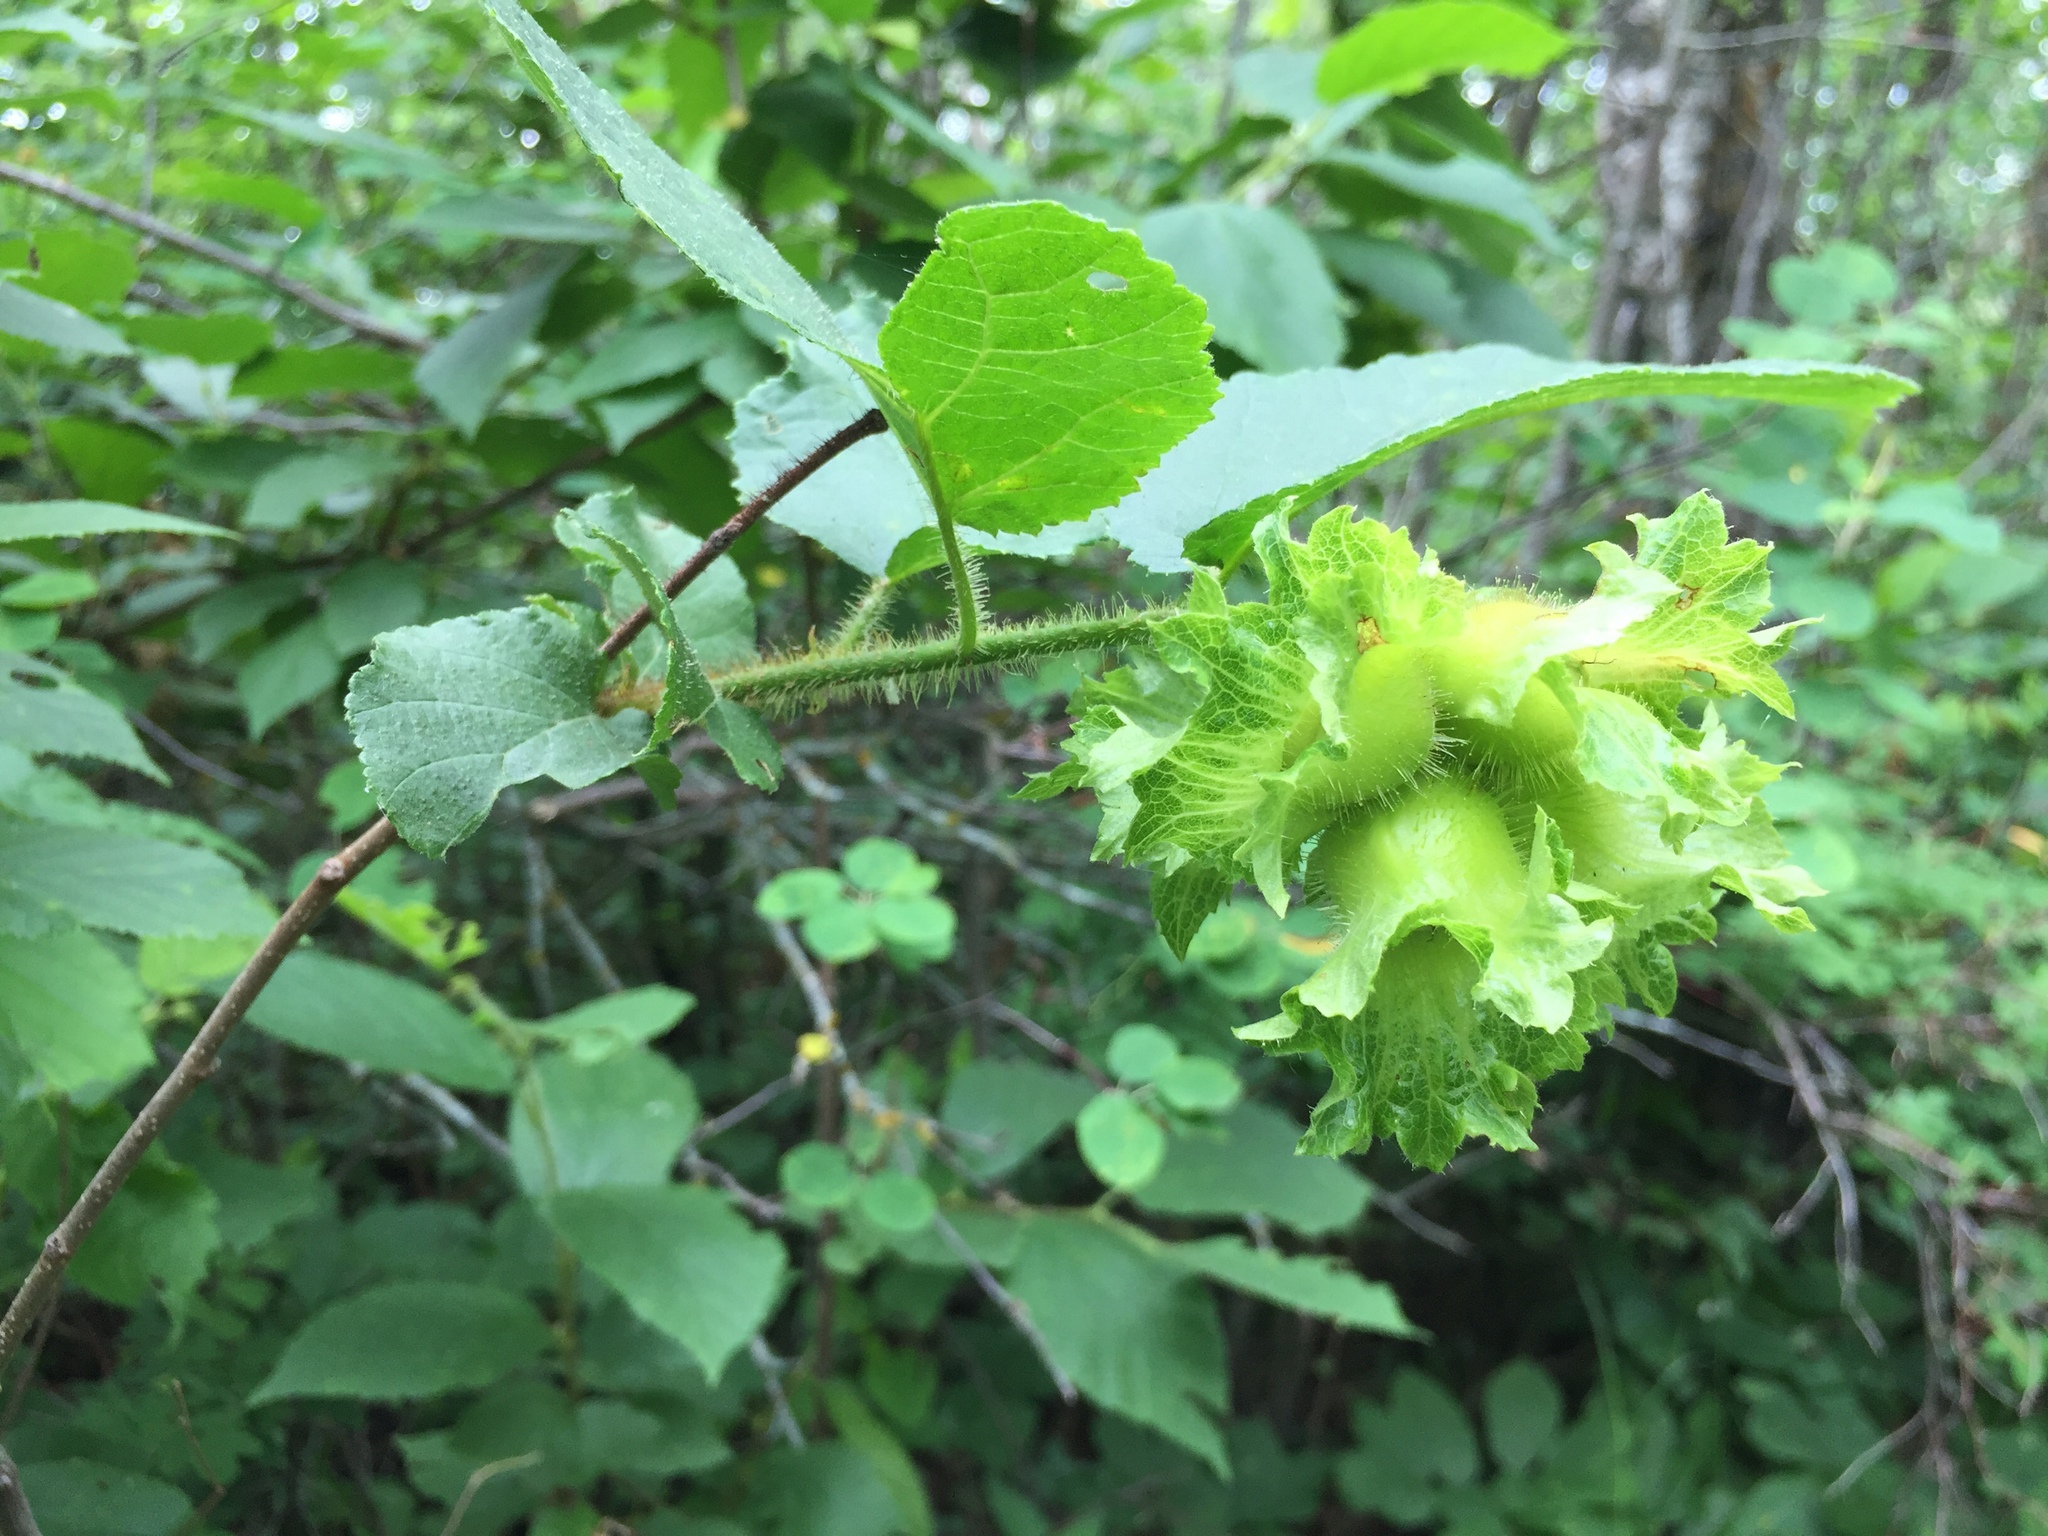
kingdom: Plantae
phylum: Tracheophyta
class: Magnoliopsida
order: Fagales
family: Betulaceae
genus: Corylus
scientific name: Corylus americana
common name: American hazel
